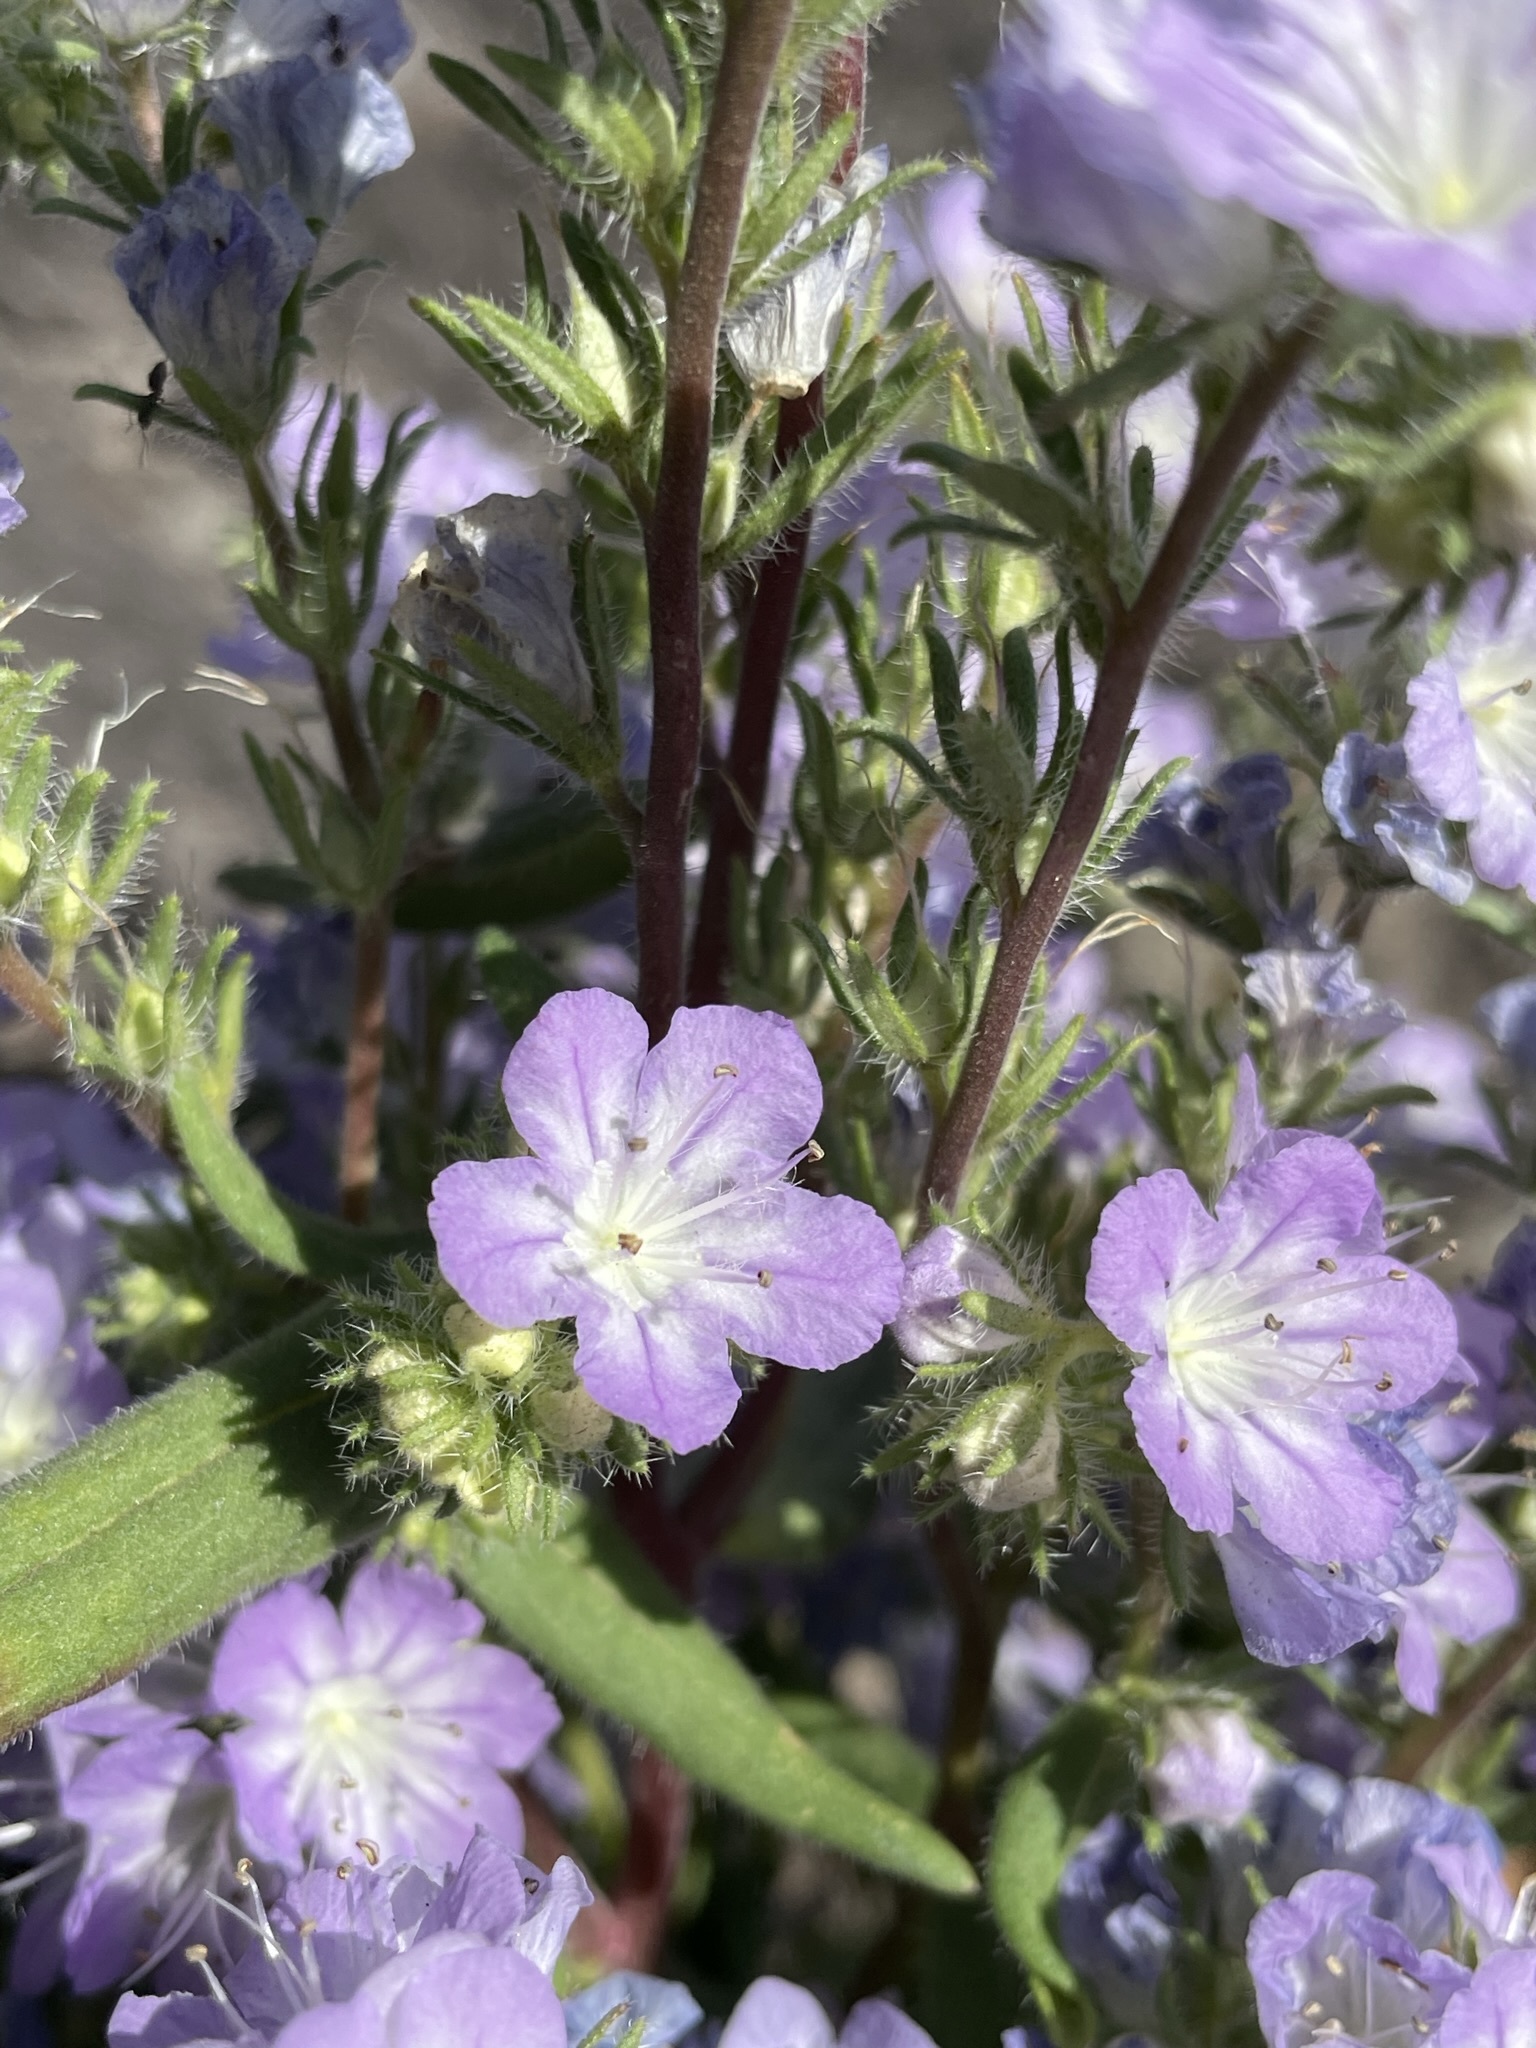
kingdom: Plantae
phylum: Tracheophyta
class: Magnoliopsida
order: Boraginales
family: Hydrophyllaceae
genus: Phacelia
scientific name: Phacelia linearis
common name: Linear-leaved phacelia
